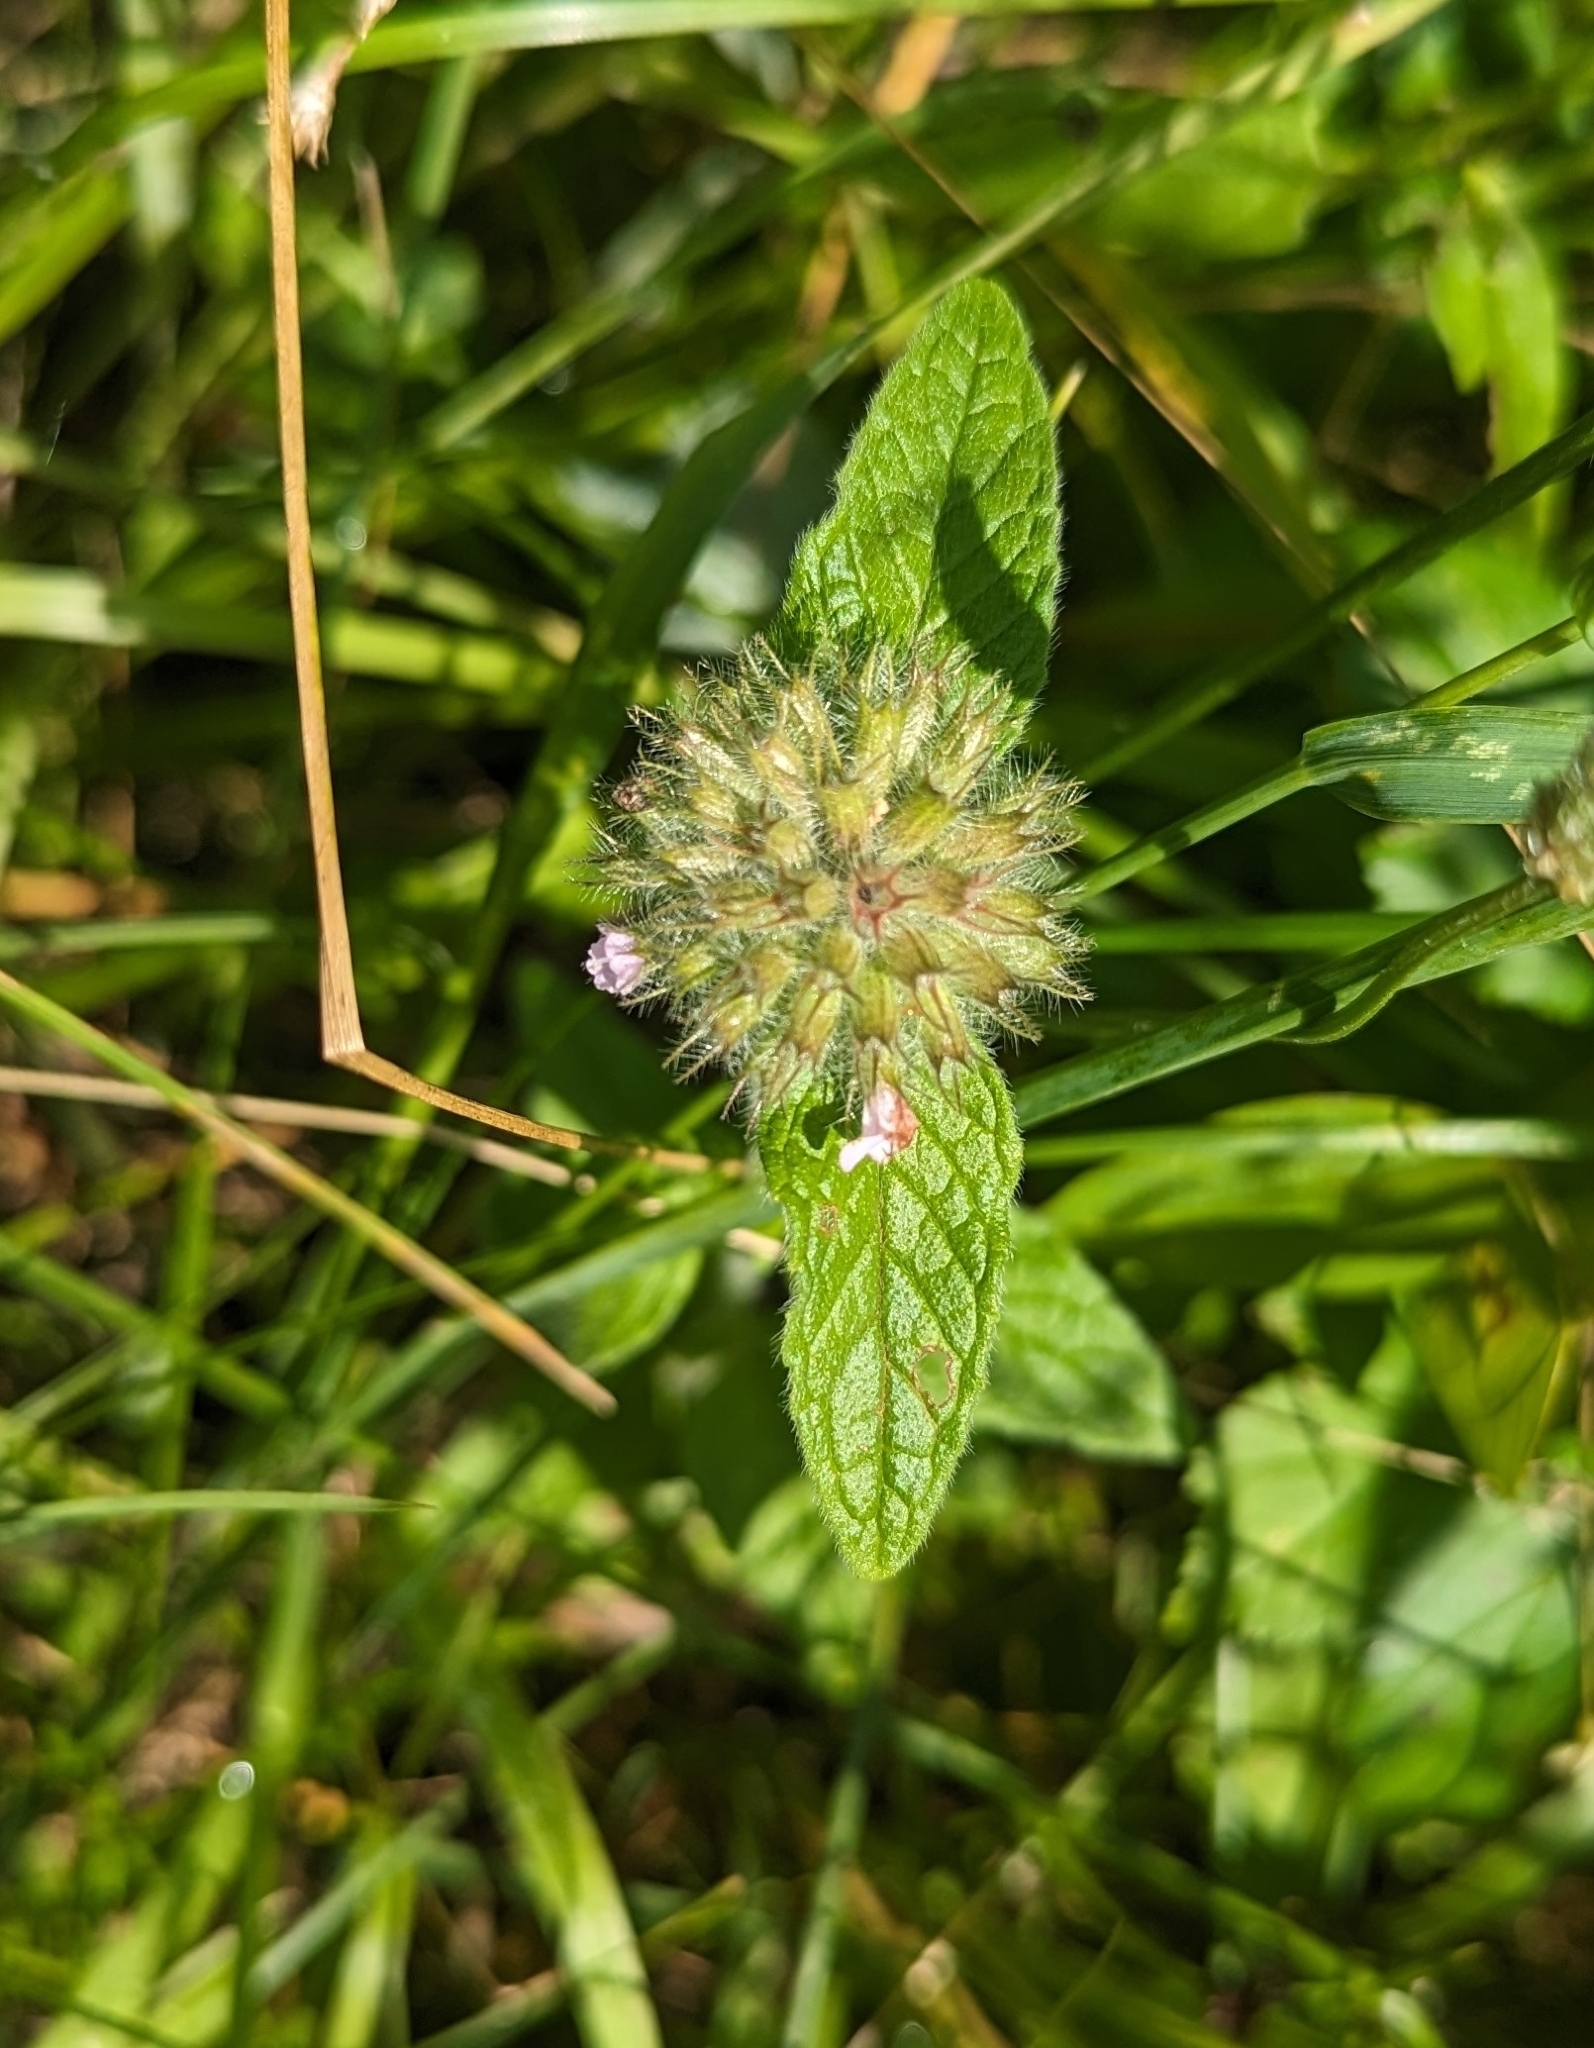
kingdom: Plantae
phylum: Tracheophyta
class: Magnoliopsida
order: Lamiales
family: Lamiaceae
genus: Clinopodium
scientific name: Clinopodium vulgare
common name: Wild basil
